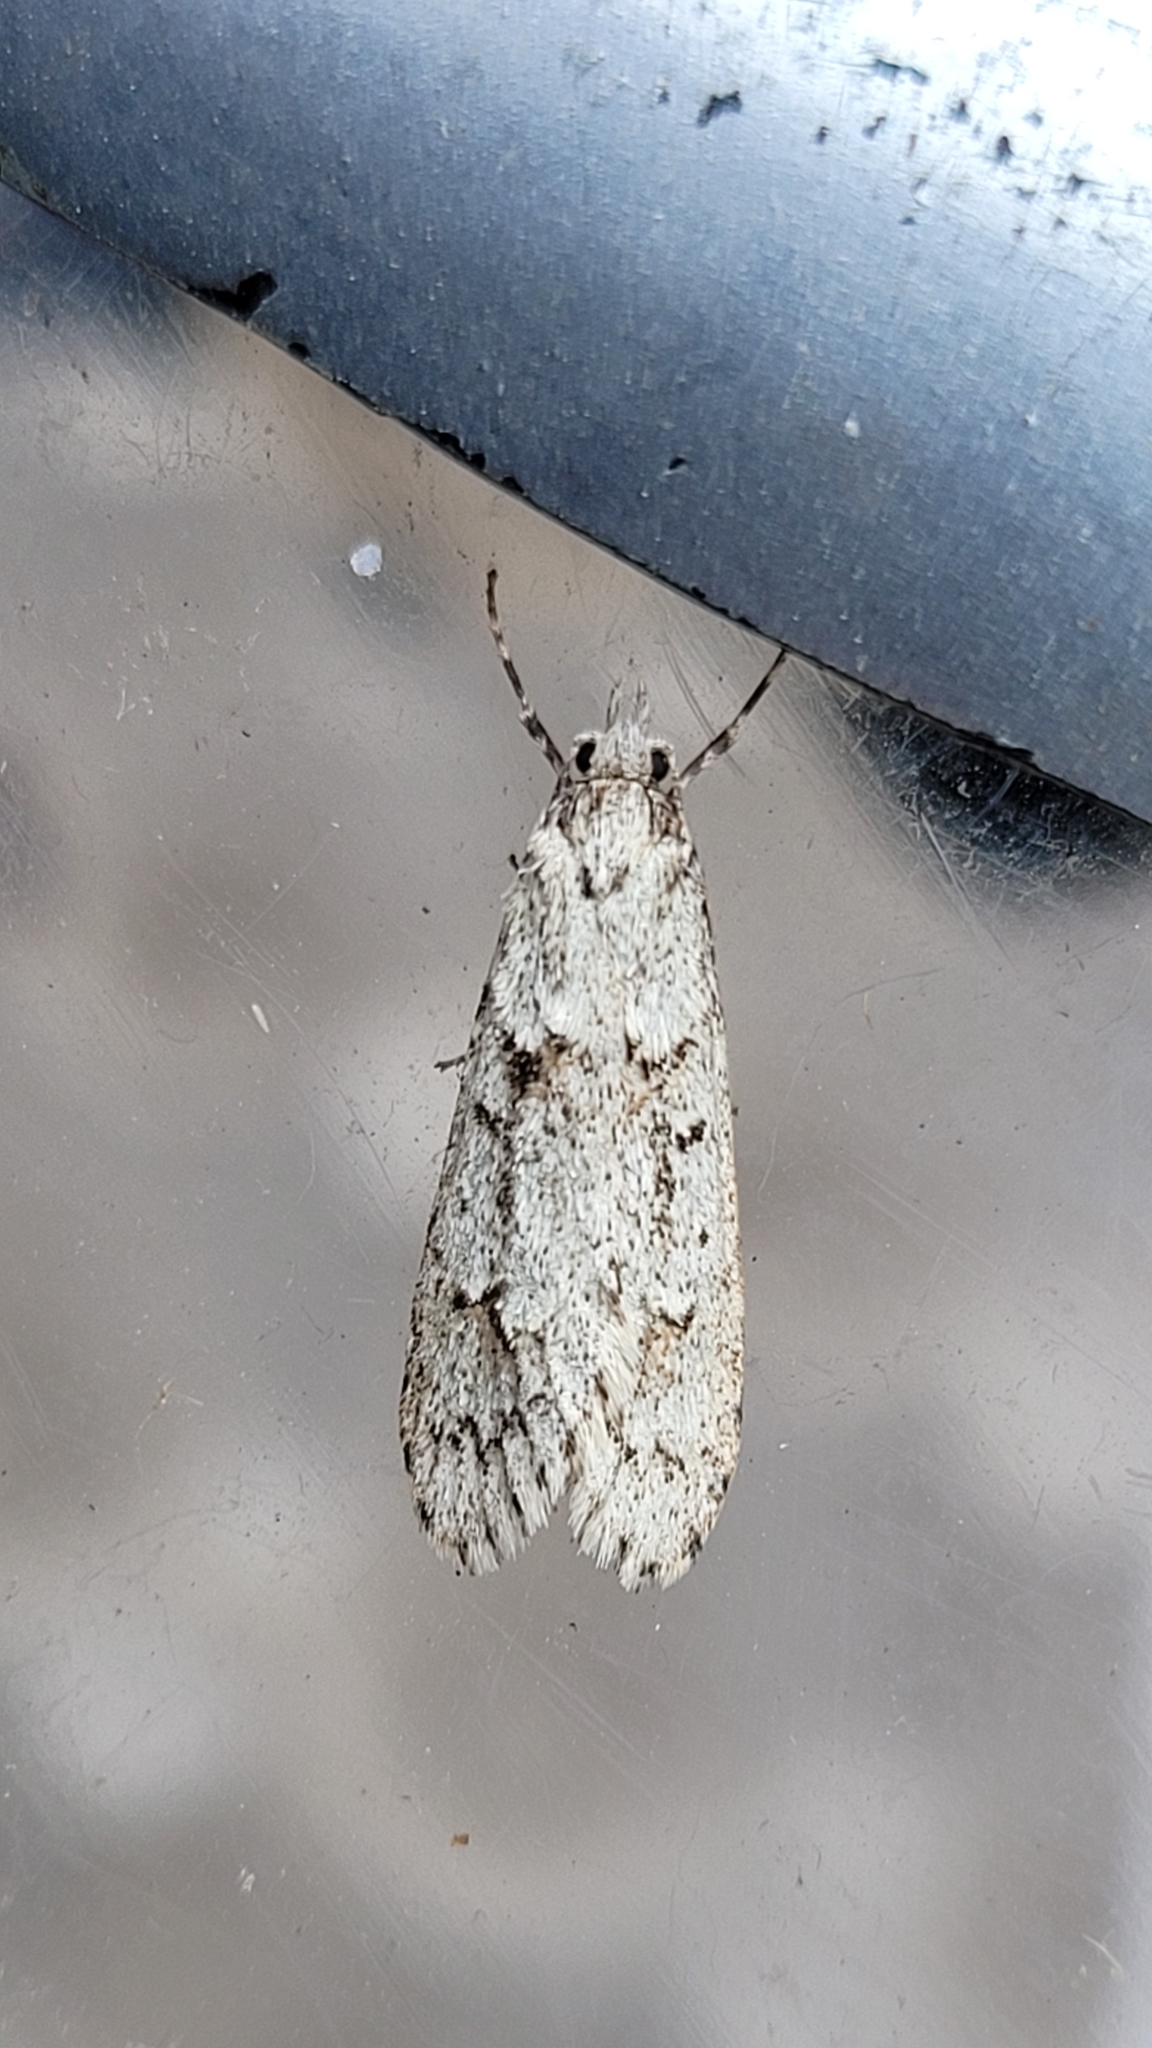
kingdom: Animalia
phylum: Arthropoda
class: Insecta
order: Lepidoptera
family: Lypusidae
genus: Diurnea
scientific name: Diurnea fagella
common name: March tubic
